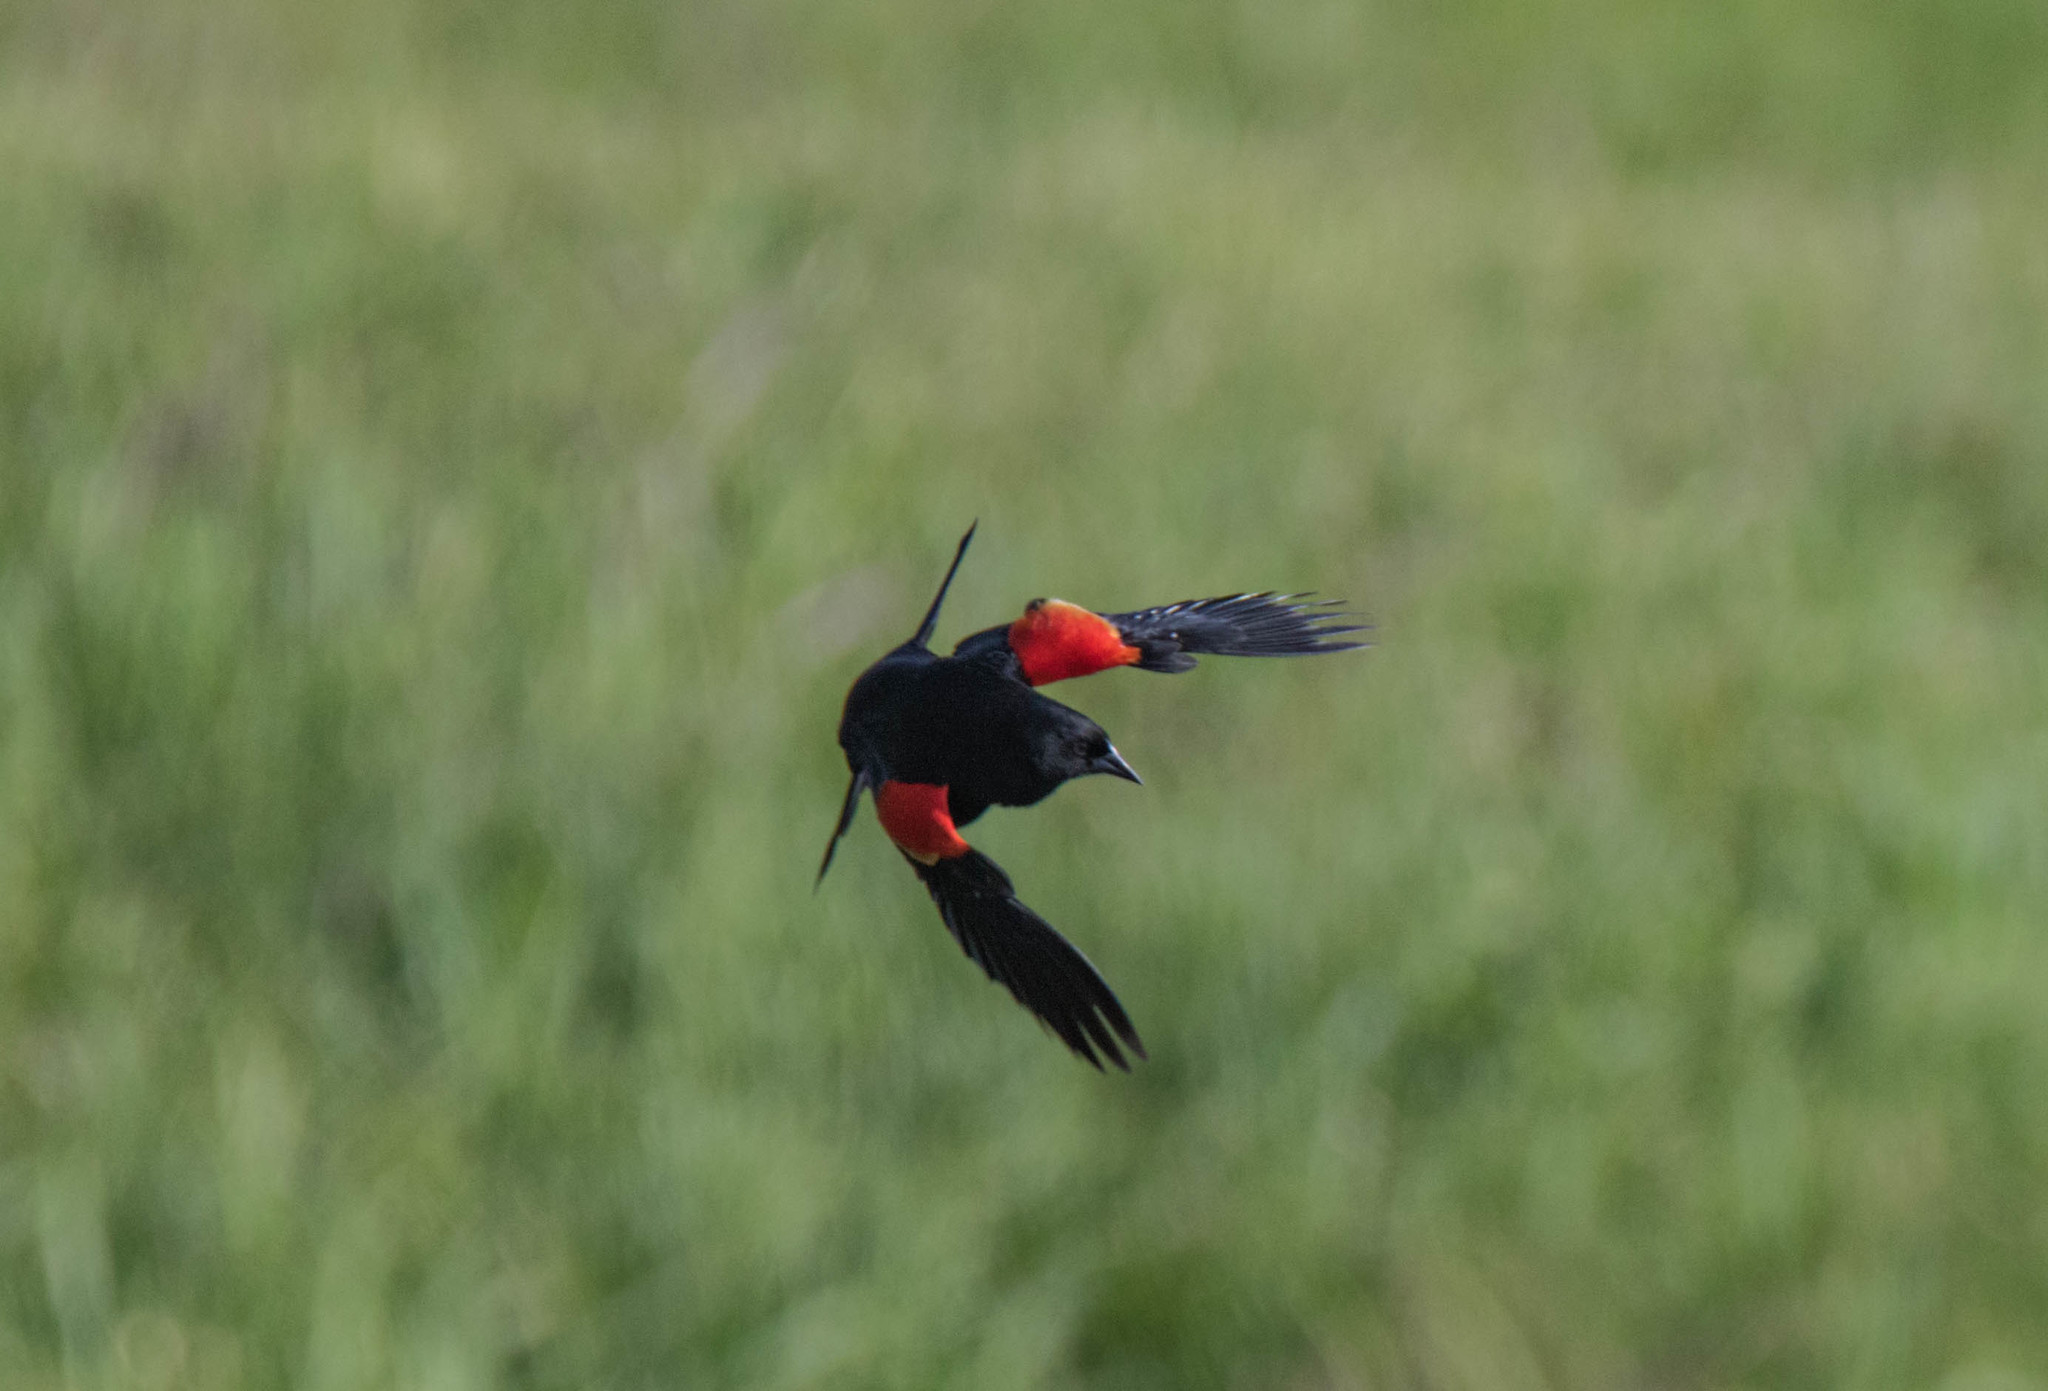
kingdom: Animalia
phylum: Chordata
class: Aves
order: Passeriformes
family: Icteridae
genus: Agelaius
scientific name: Agelaius phoeniceus
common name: Red-winged blackbird
